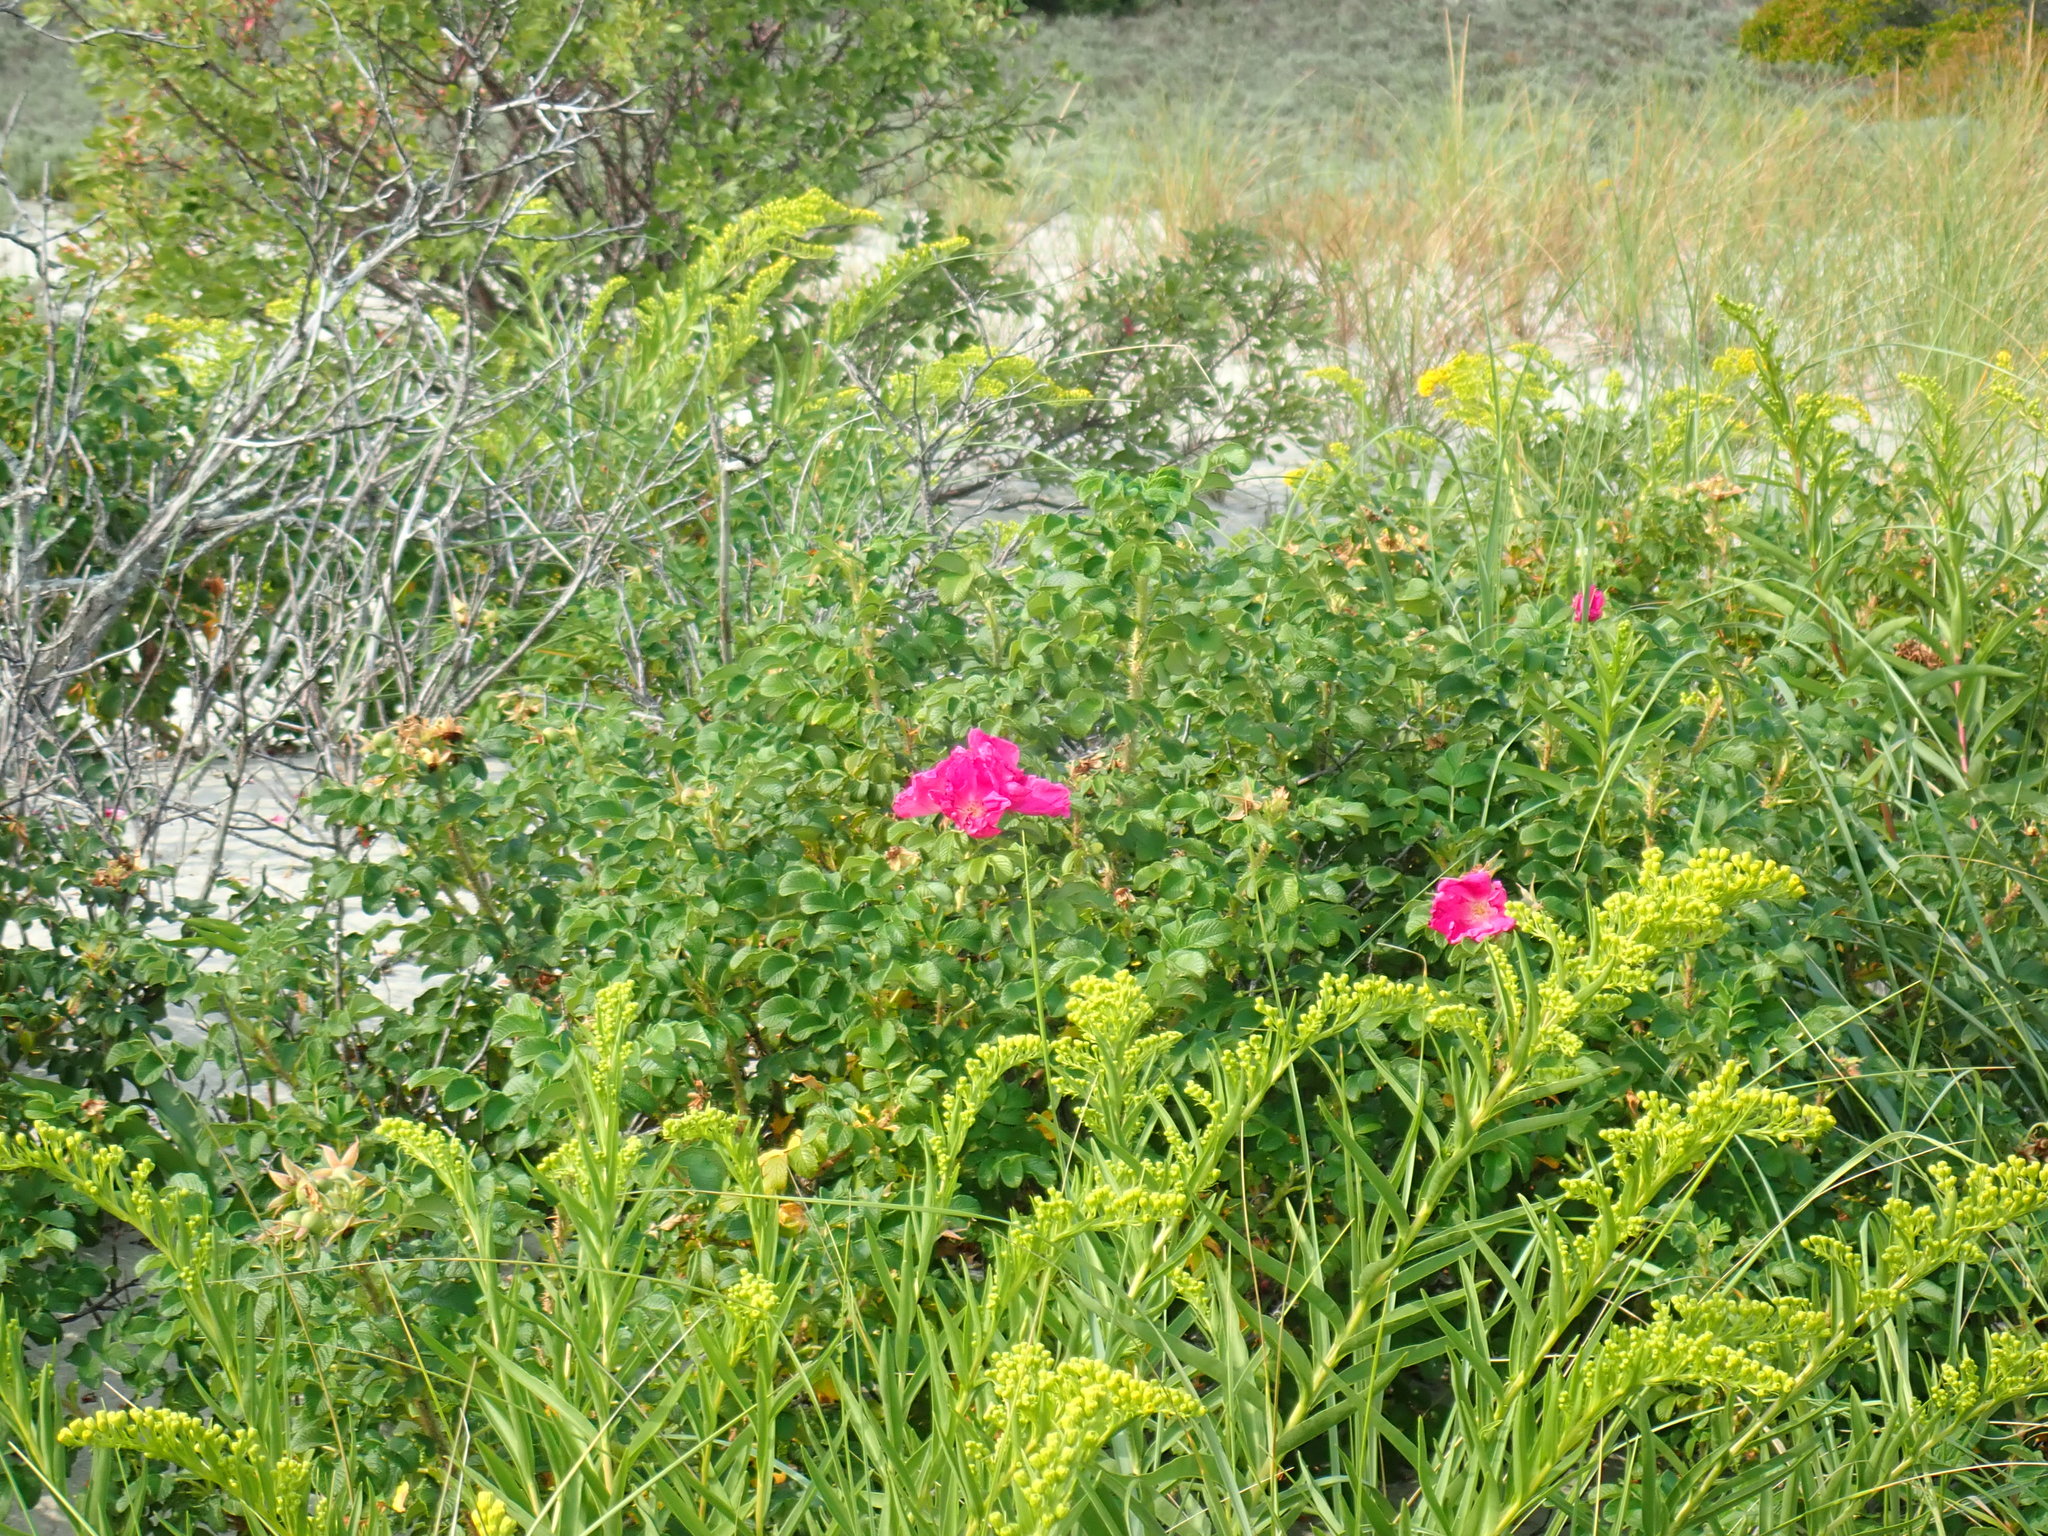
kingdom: Plantae
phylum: Tracheophyta
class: Magnoliopsida
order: Rosales
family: Rosaceae
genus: Rosa
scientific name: Rosa rugosa
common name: Japanese rose
